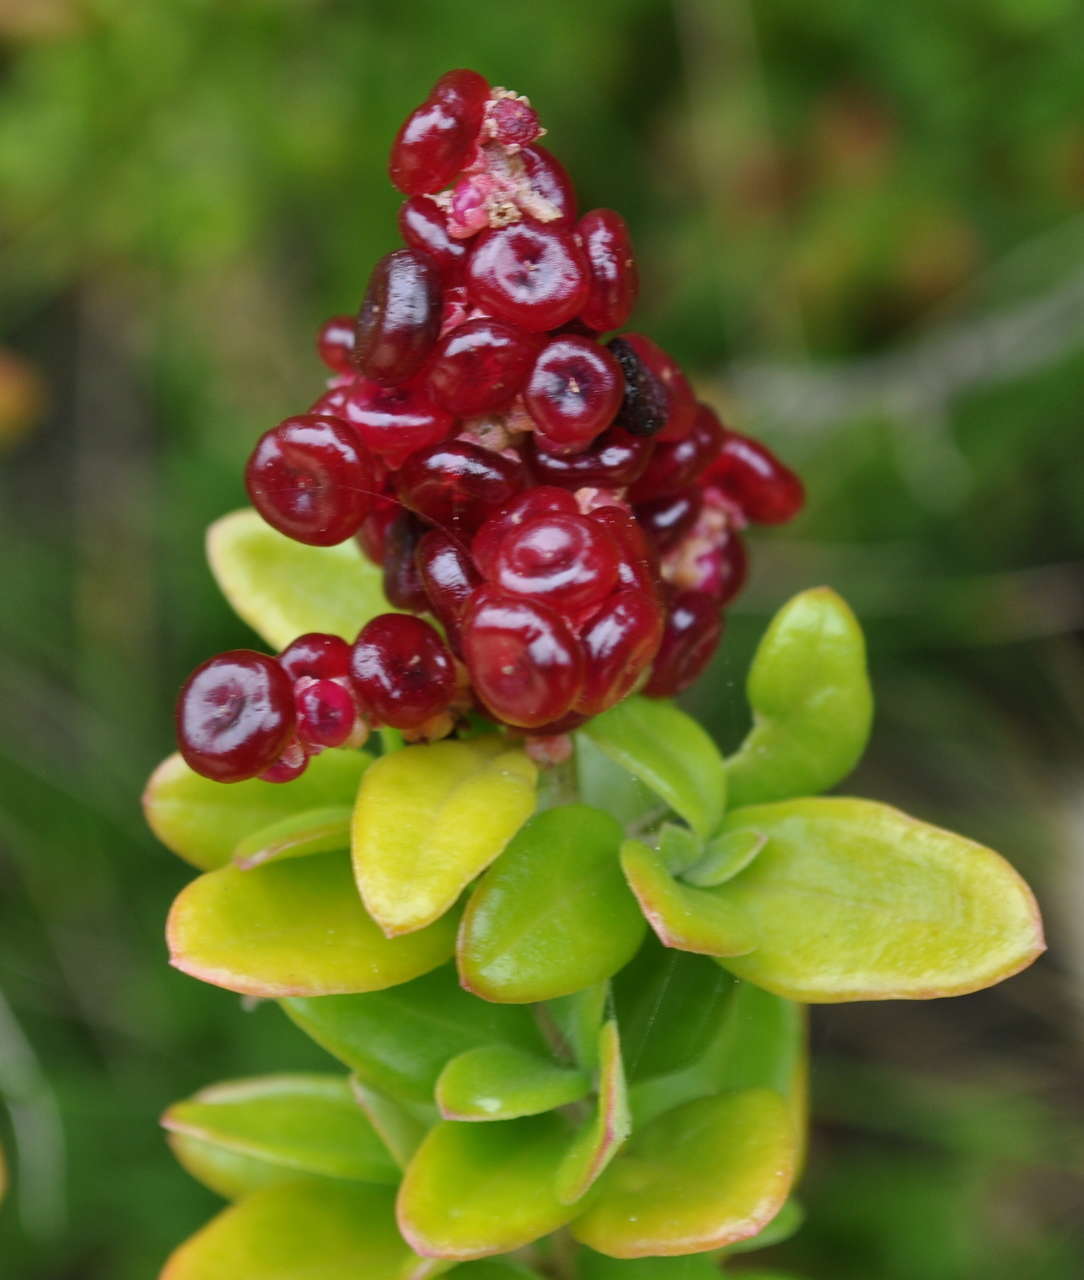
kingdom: Plantae
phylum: Tracheophyta
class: Magnoliopsida
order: Caryophyllales
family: Amaranthaceae
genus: Chenopodium
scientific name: Chenopodium candolleanum
